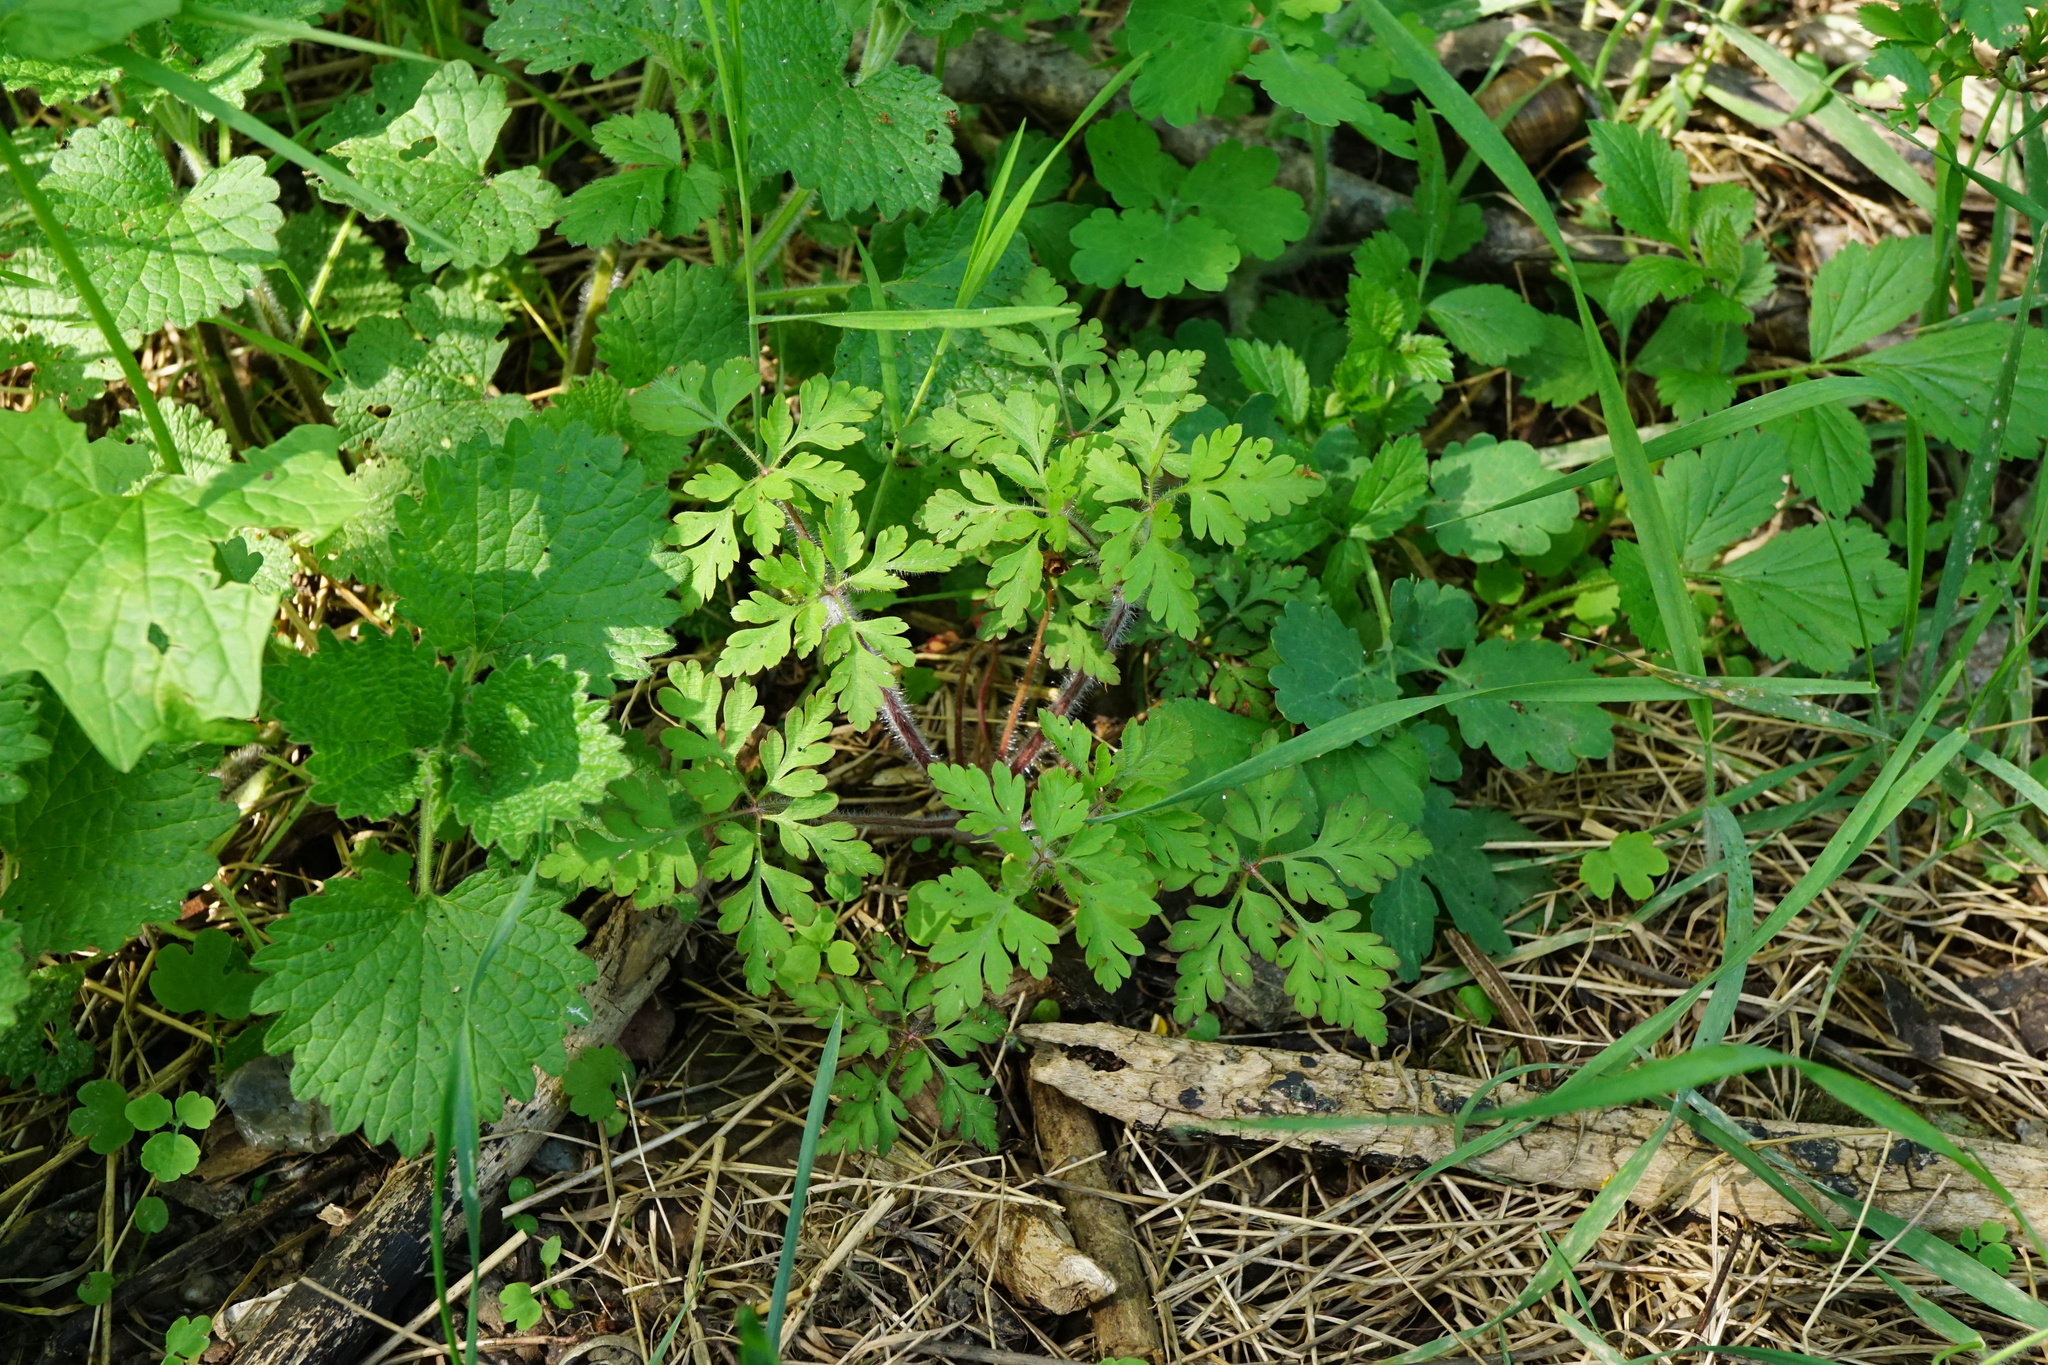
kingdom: Plantae
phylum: Tracheophyta
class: Magnoliopsida
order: Geraniales
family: Geraniaceae
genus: Geranium
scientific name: Geranium robertianum
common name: Herb-robert
